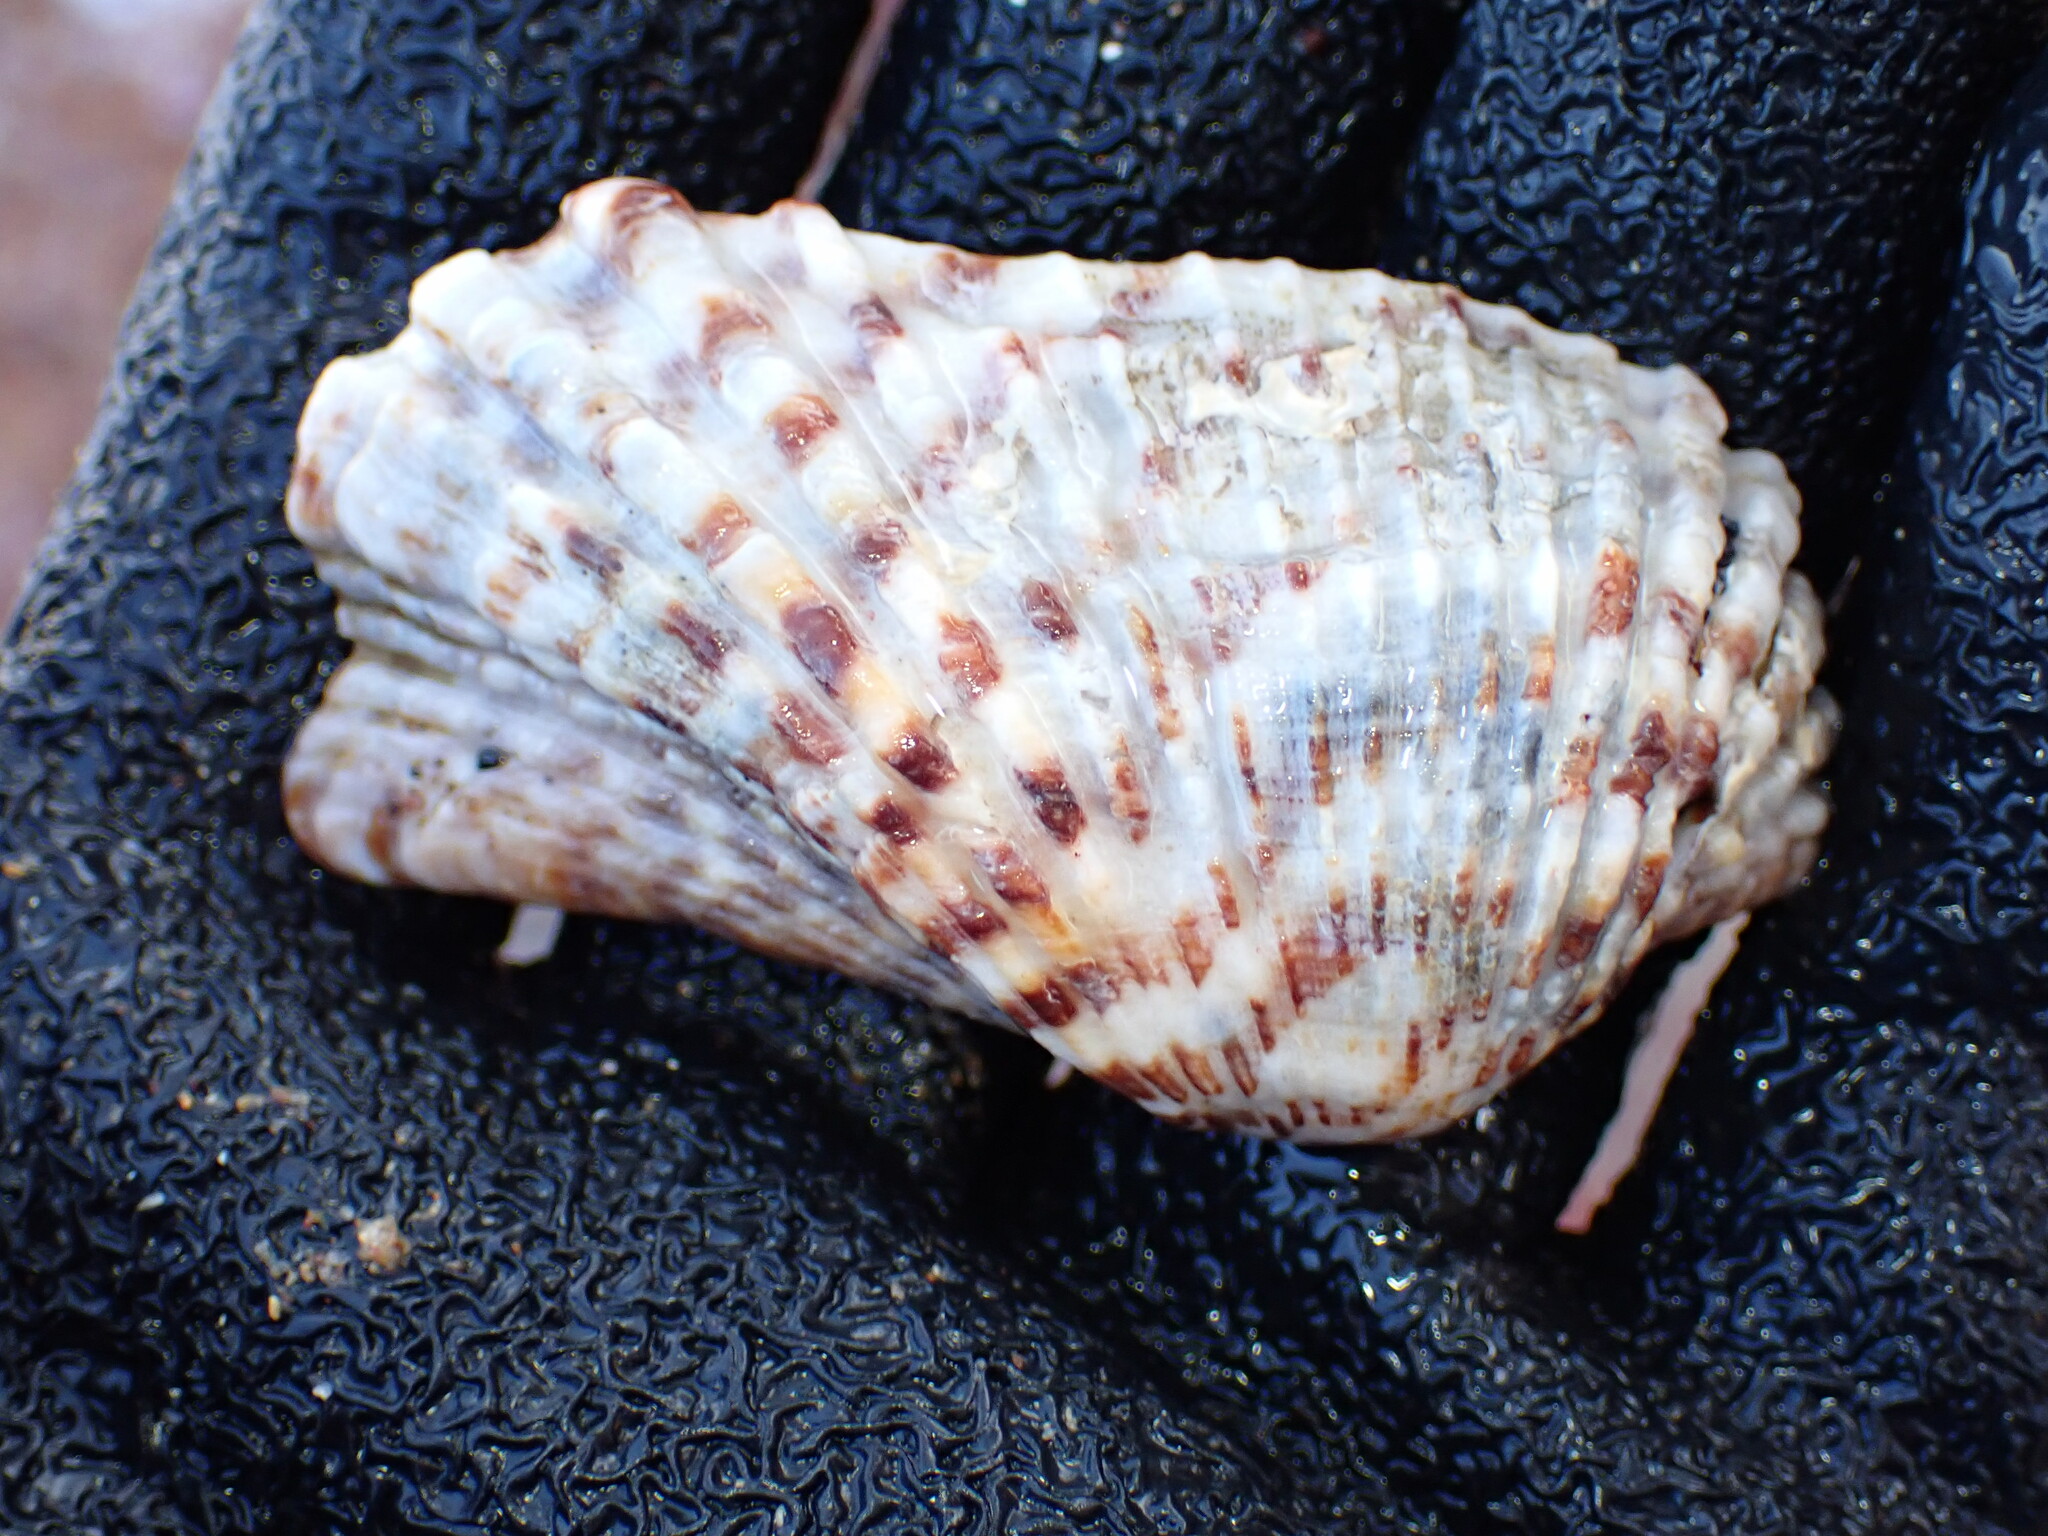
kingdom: Animalia
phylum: Mollusca
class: Bivalvia
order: Arcida
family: Arcidae
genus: Arca
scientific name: Arca navicularis
